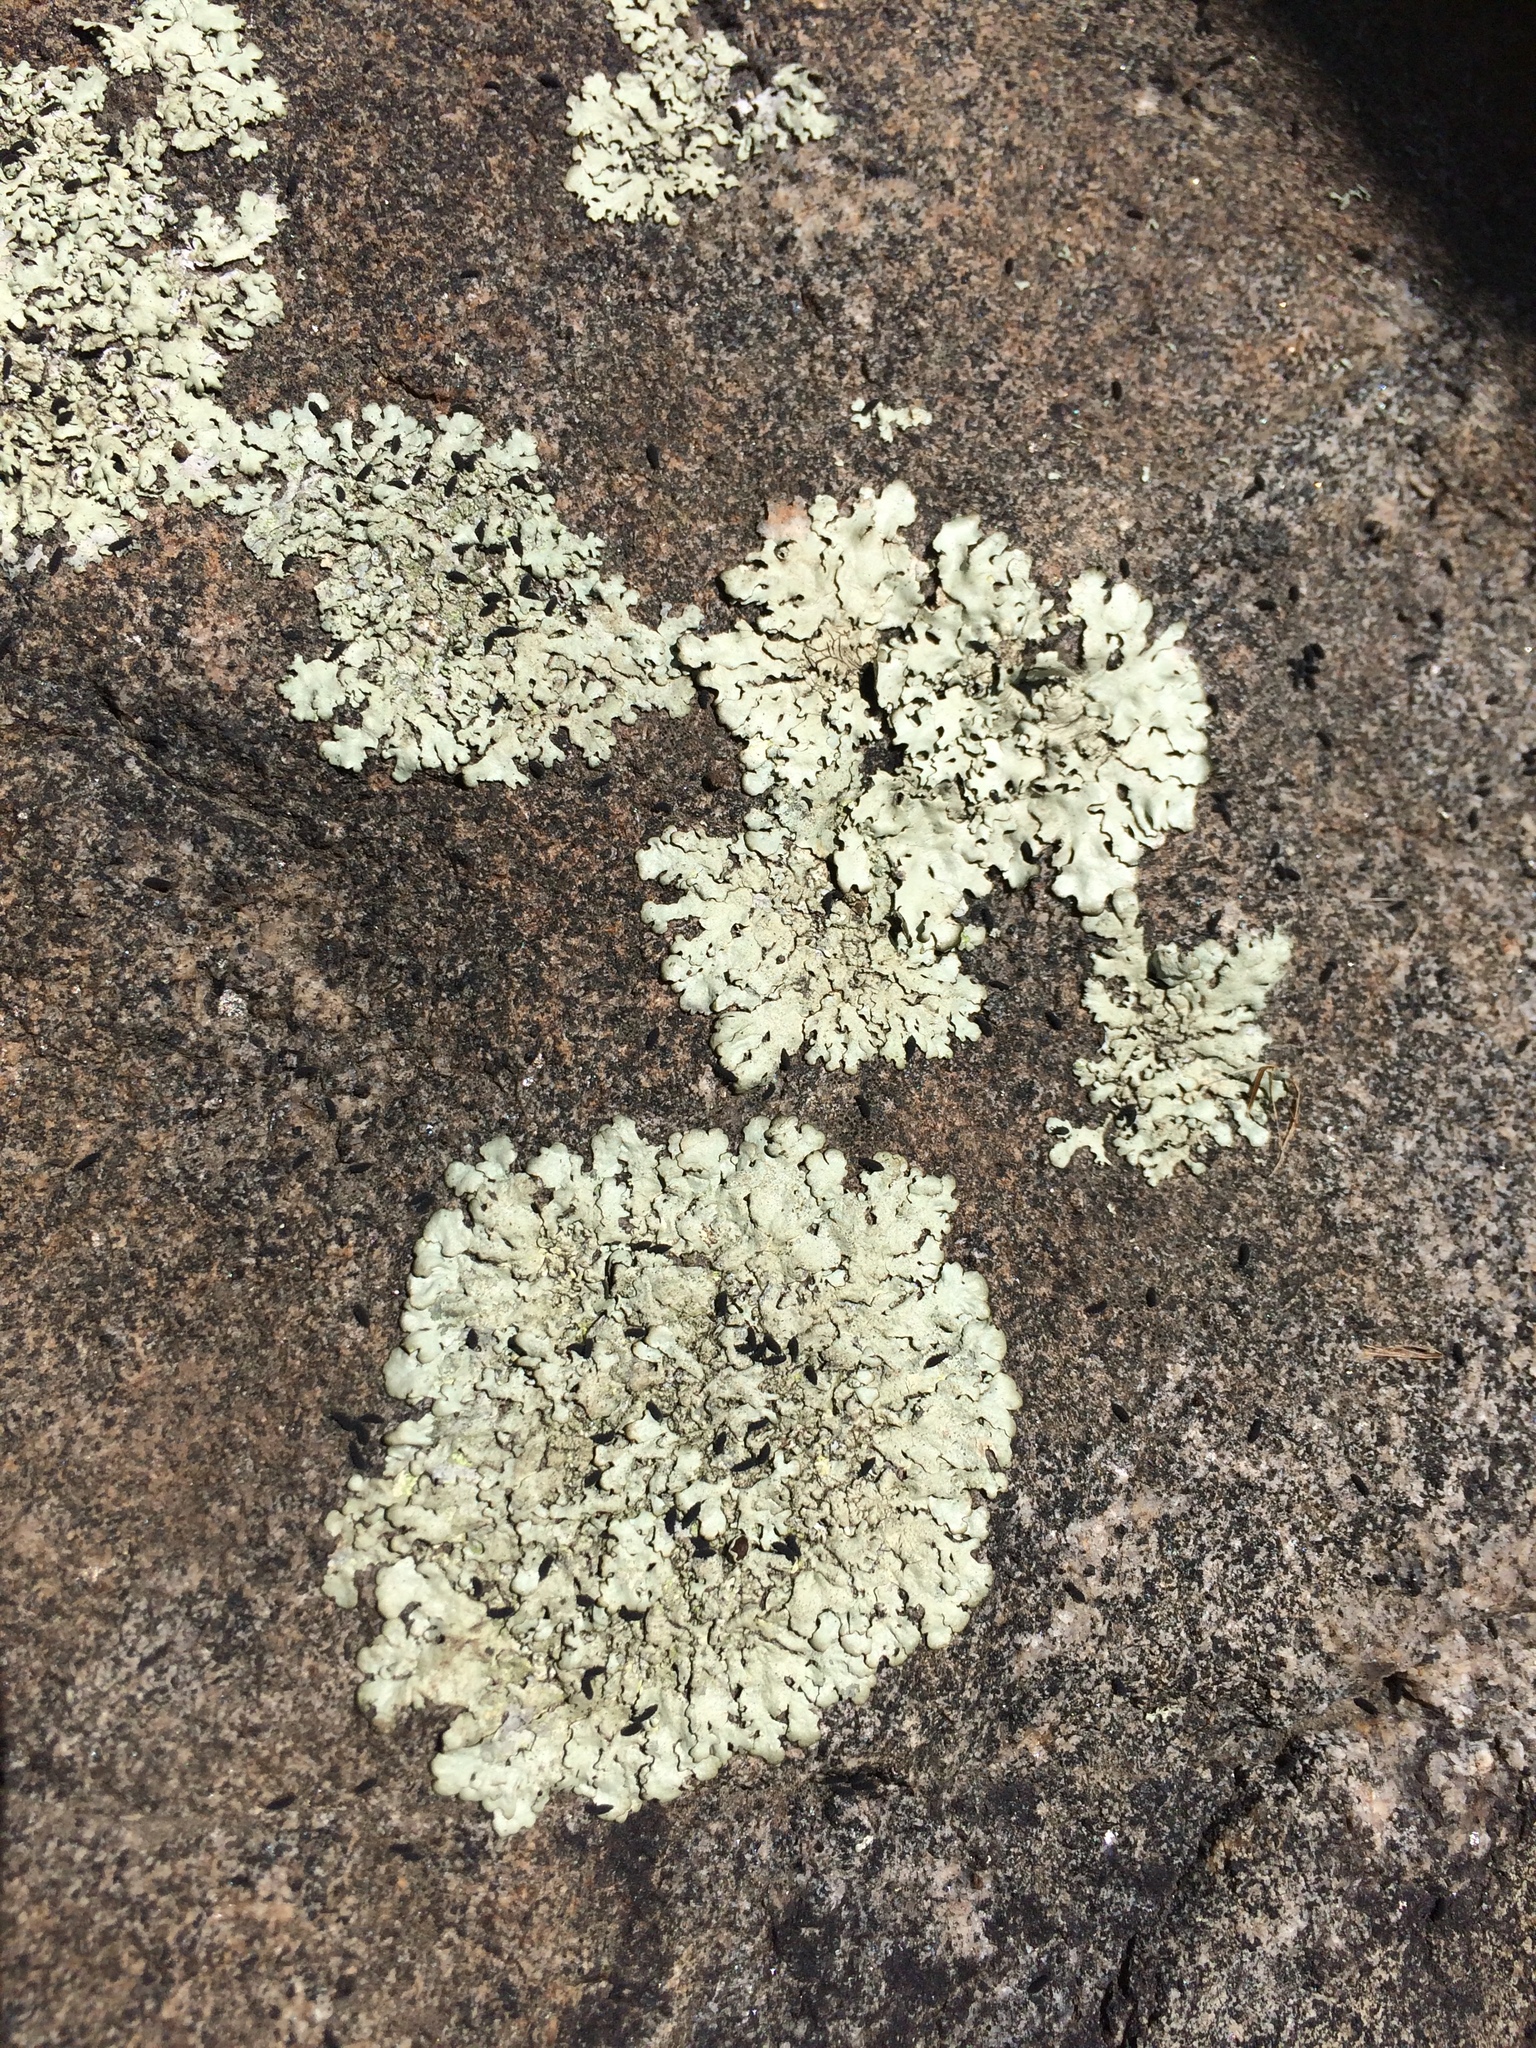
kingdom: Fungi
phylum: Ascomycota
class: Lecanoromycetes
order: Lecanorales
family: Parmeliaceae
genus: Flavoparmelia
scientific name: Flavoparmelia baltimorensis
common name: Rock greenshield
